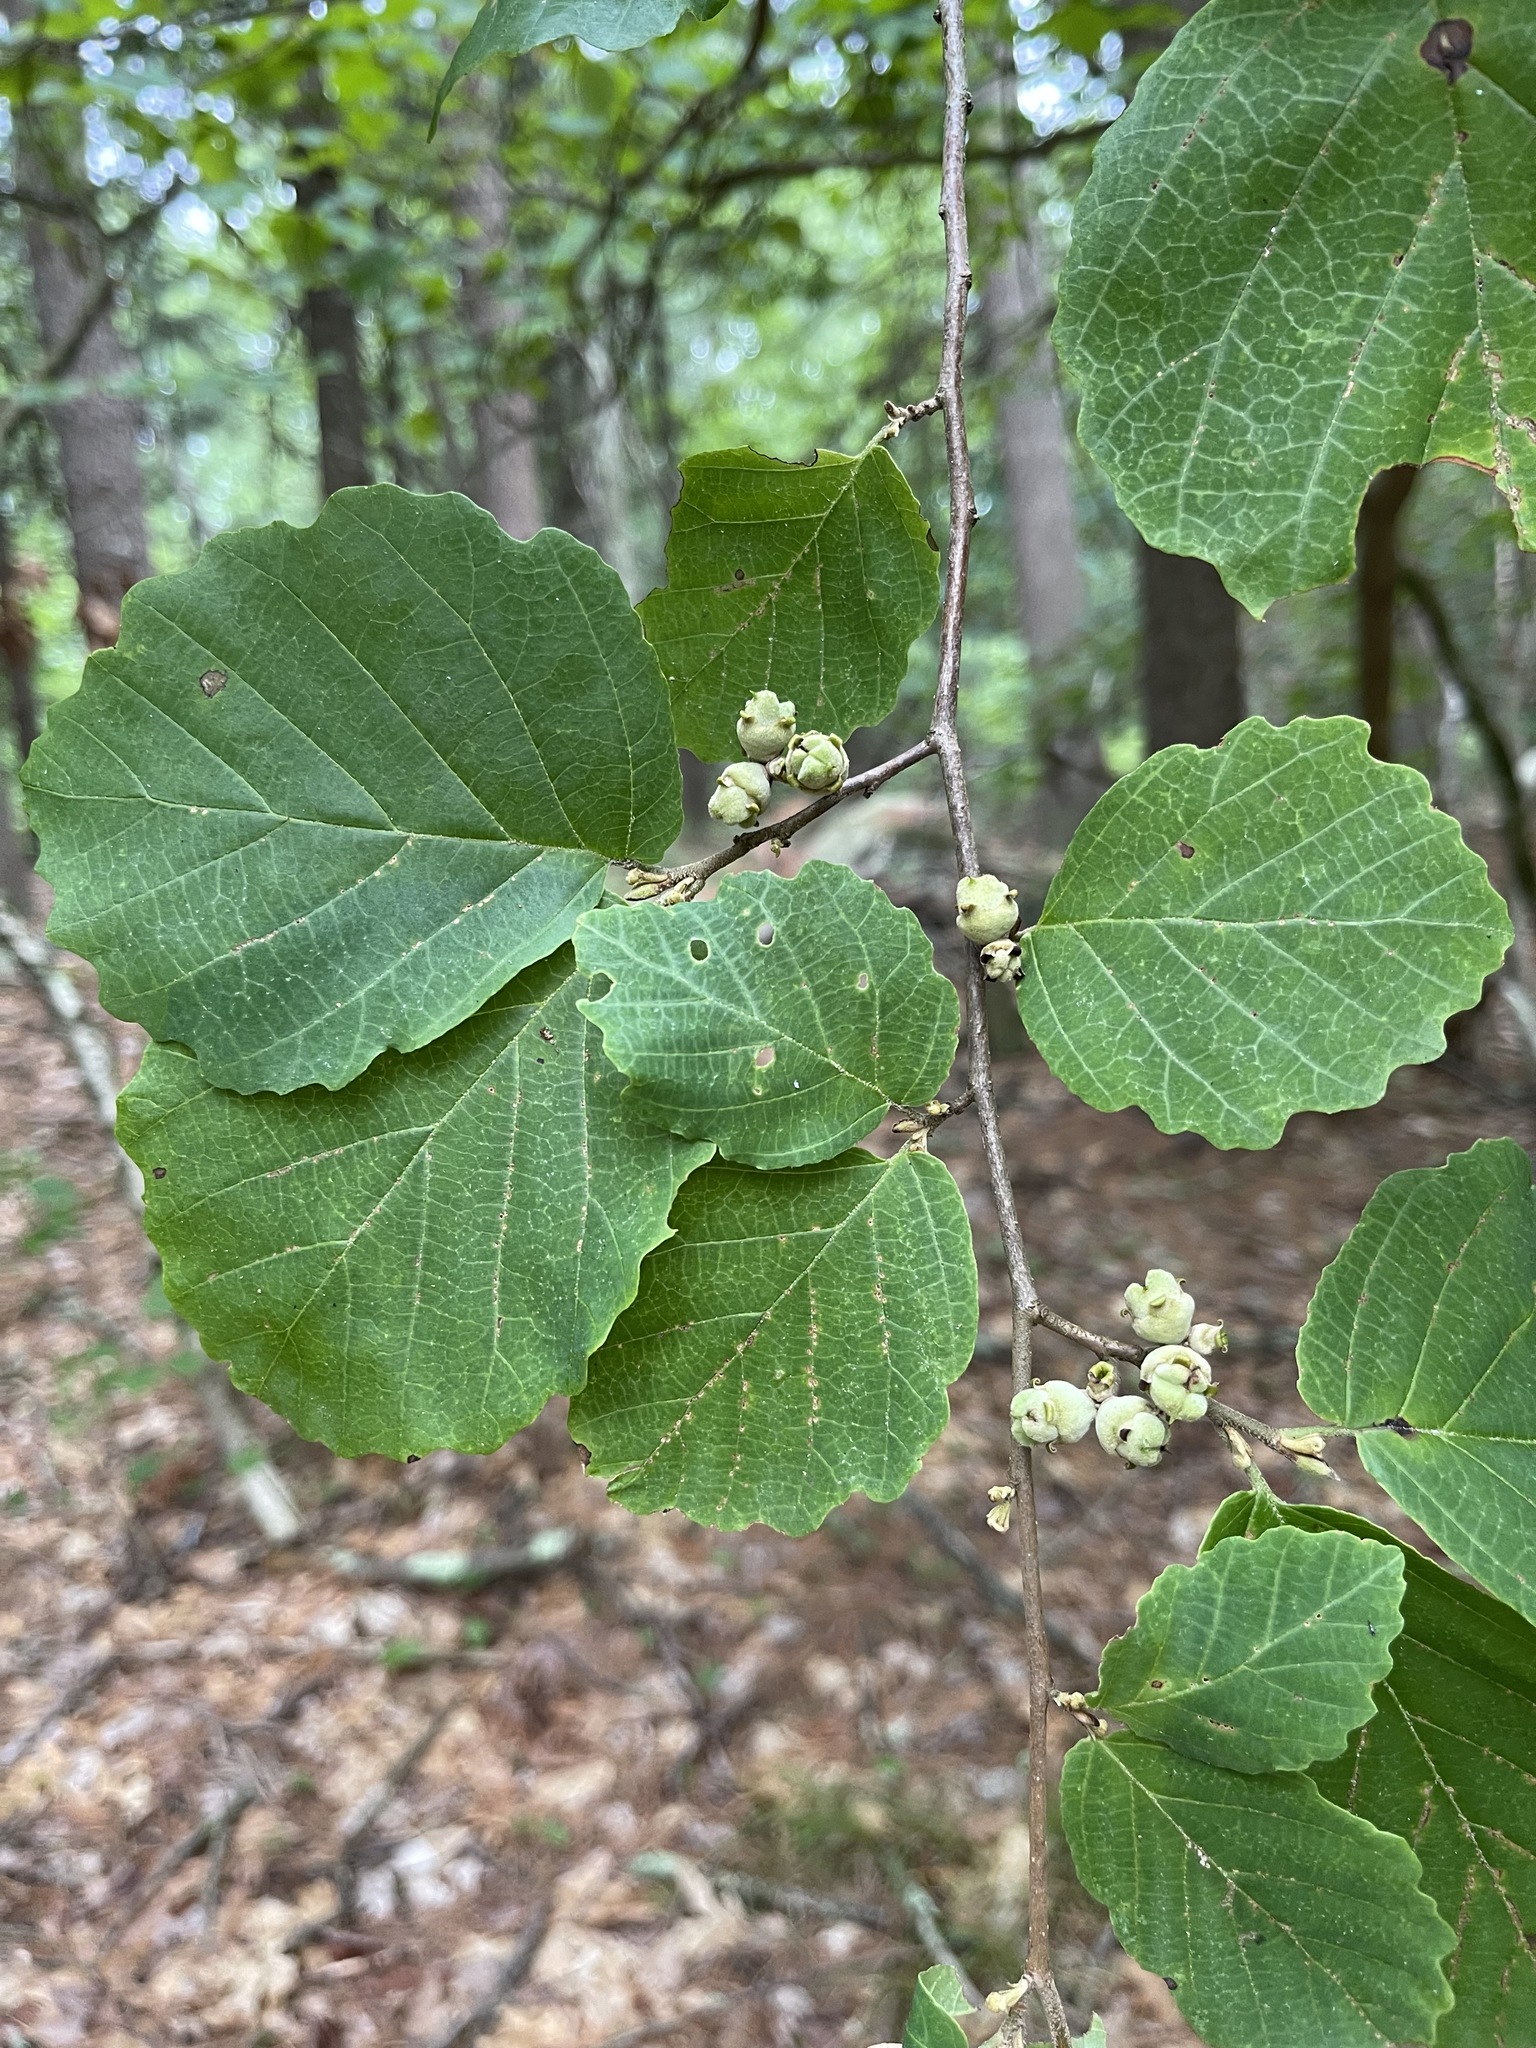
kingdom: Plantae
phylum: Tracheophyta
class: Magnoliopsida
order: Saxifragales
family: Hamamelidaceae
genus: Hamamelis
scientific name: Hamamelis virginiana
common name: Witch-hazel
